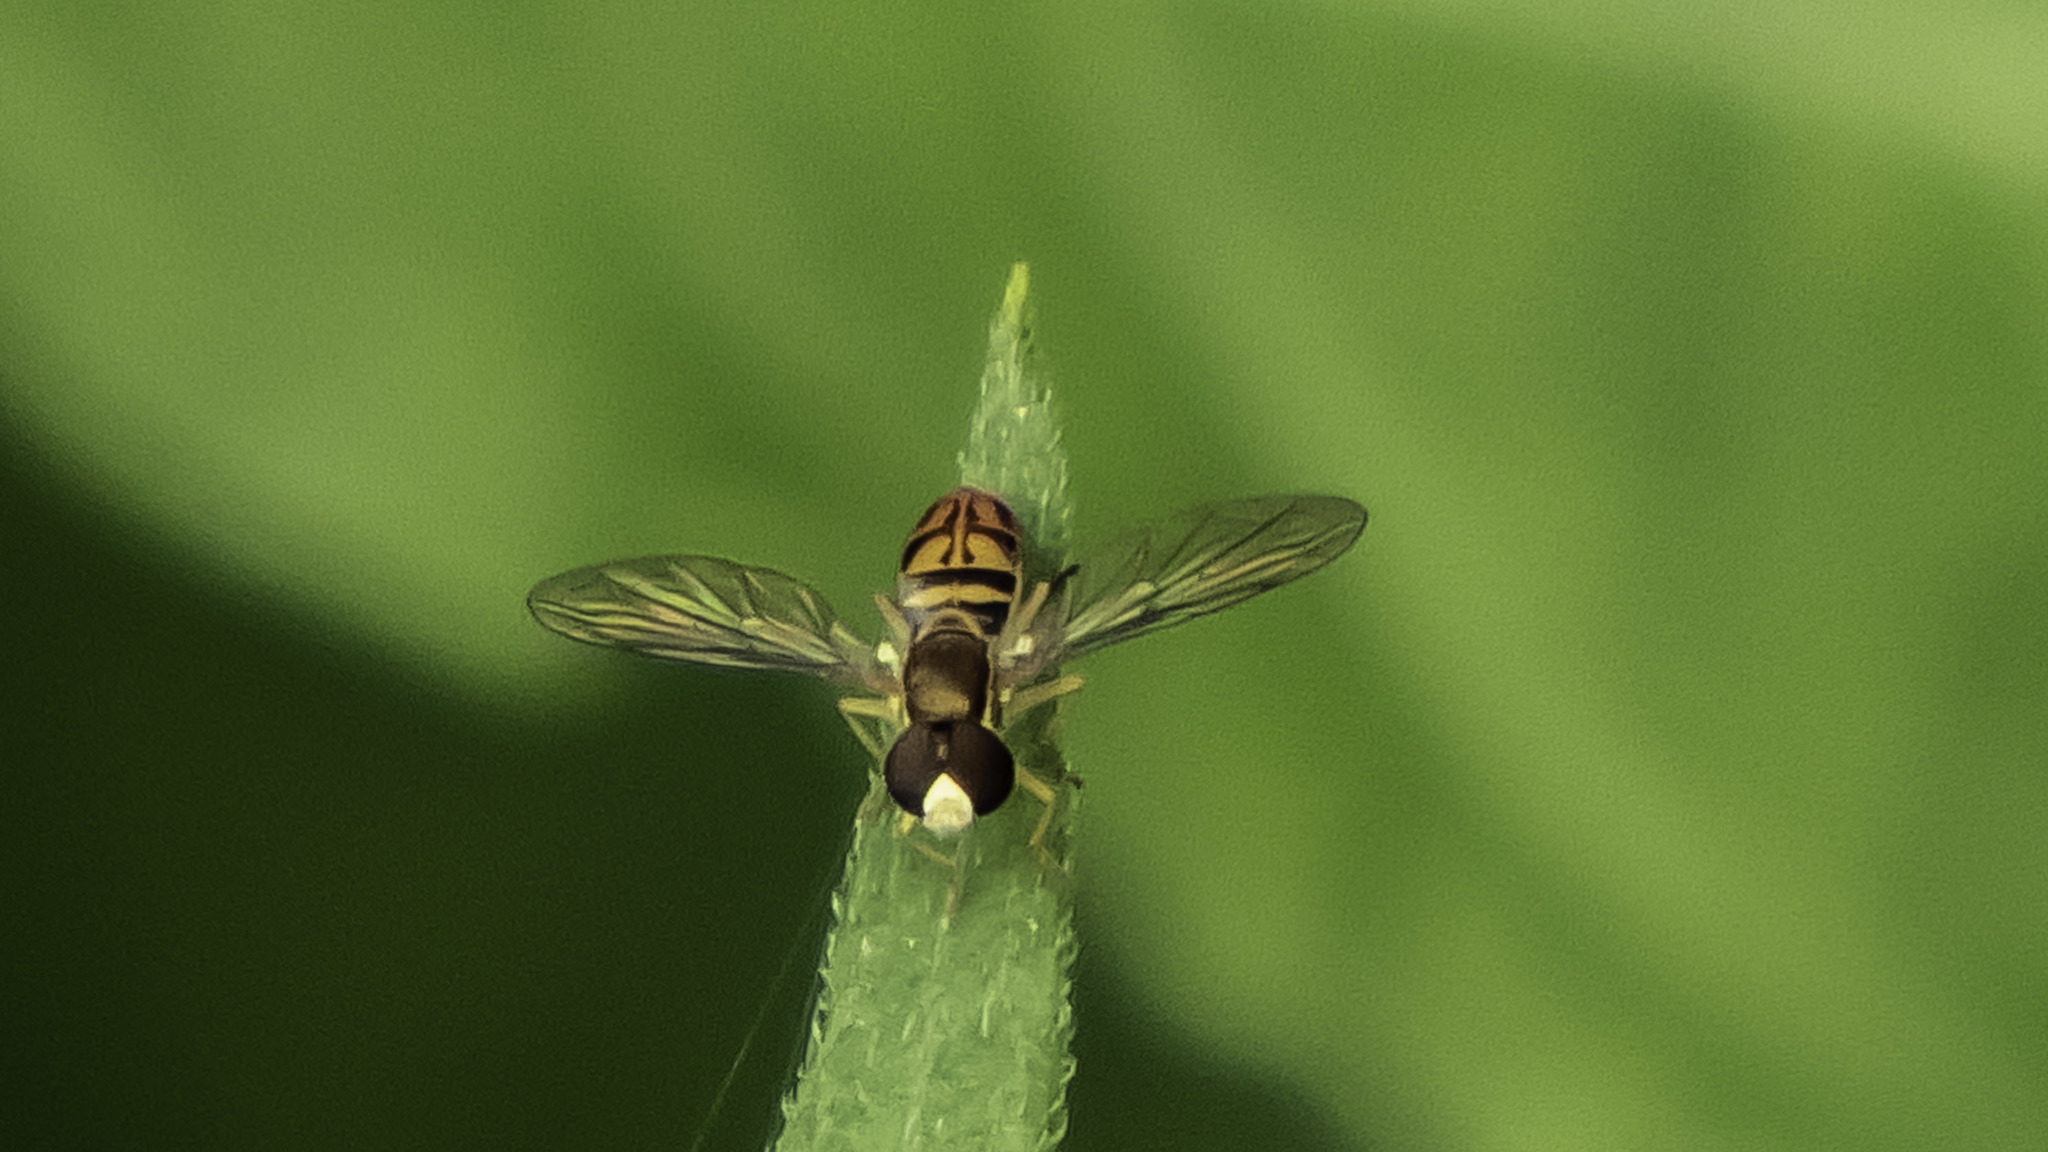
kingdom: Animalia
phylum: Arthropoda
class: Insecta
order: Diptera
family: Syrphidae
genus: Toxomerus
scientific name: Toxomerus marginatus
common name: Syrphid fly
